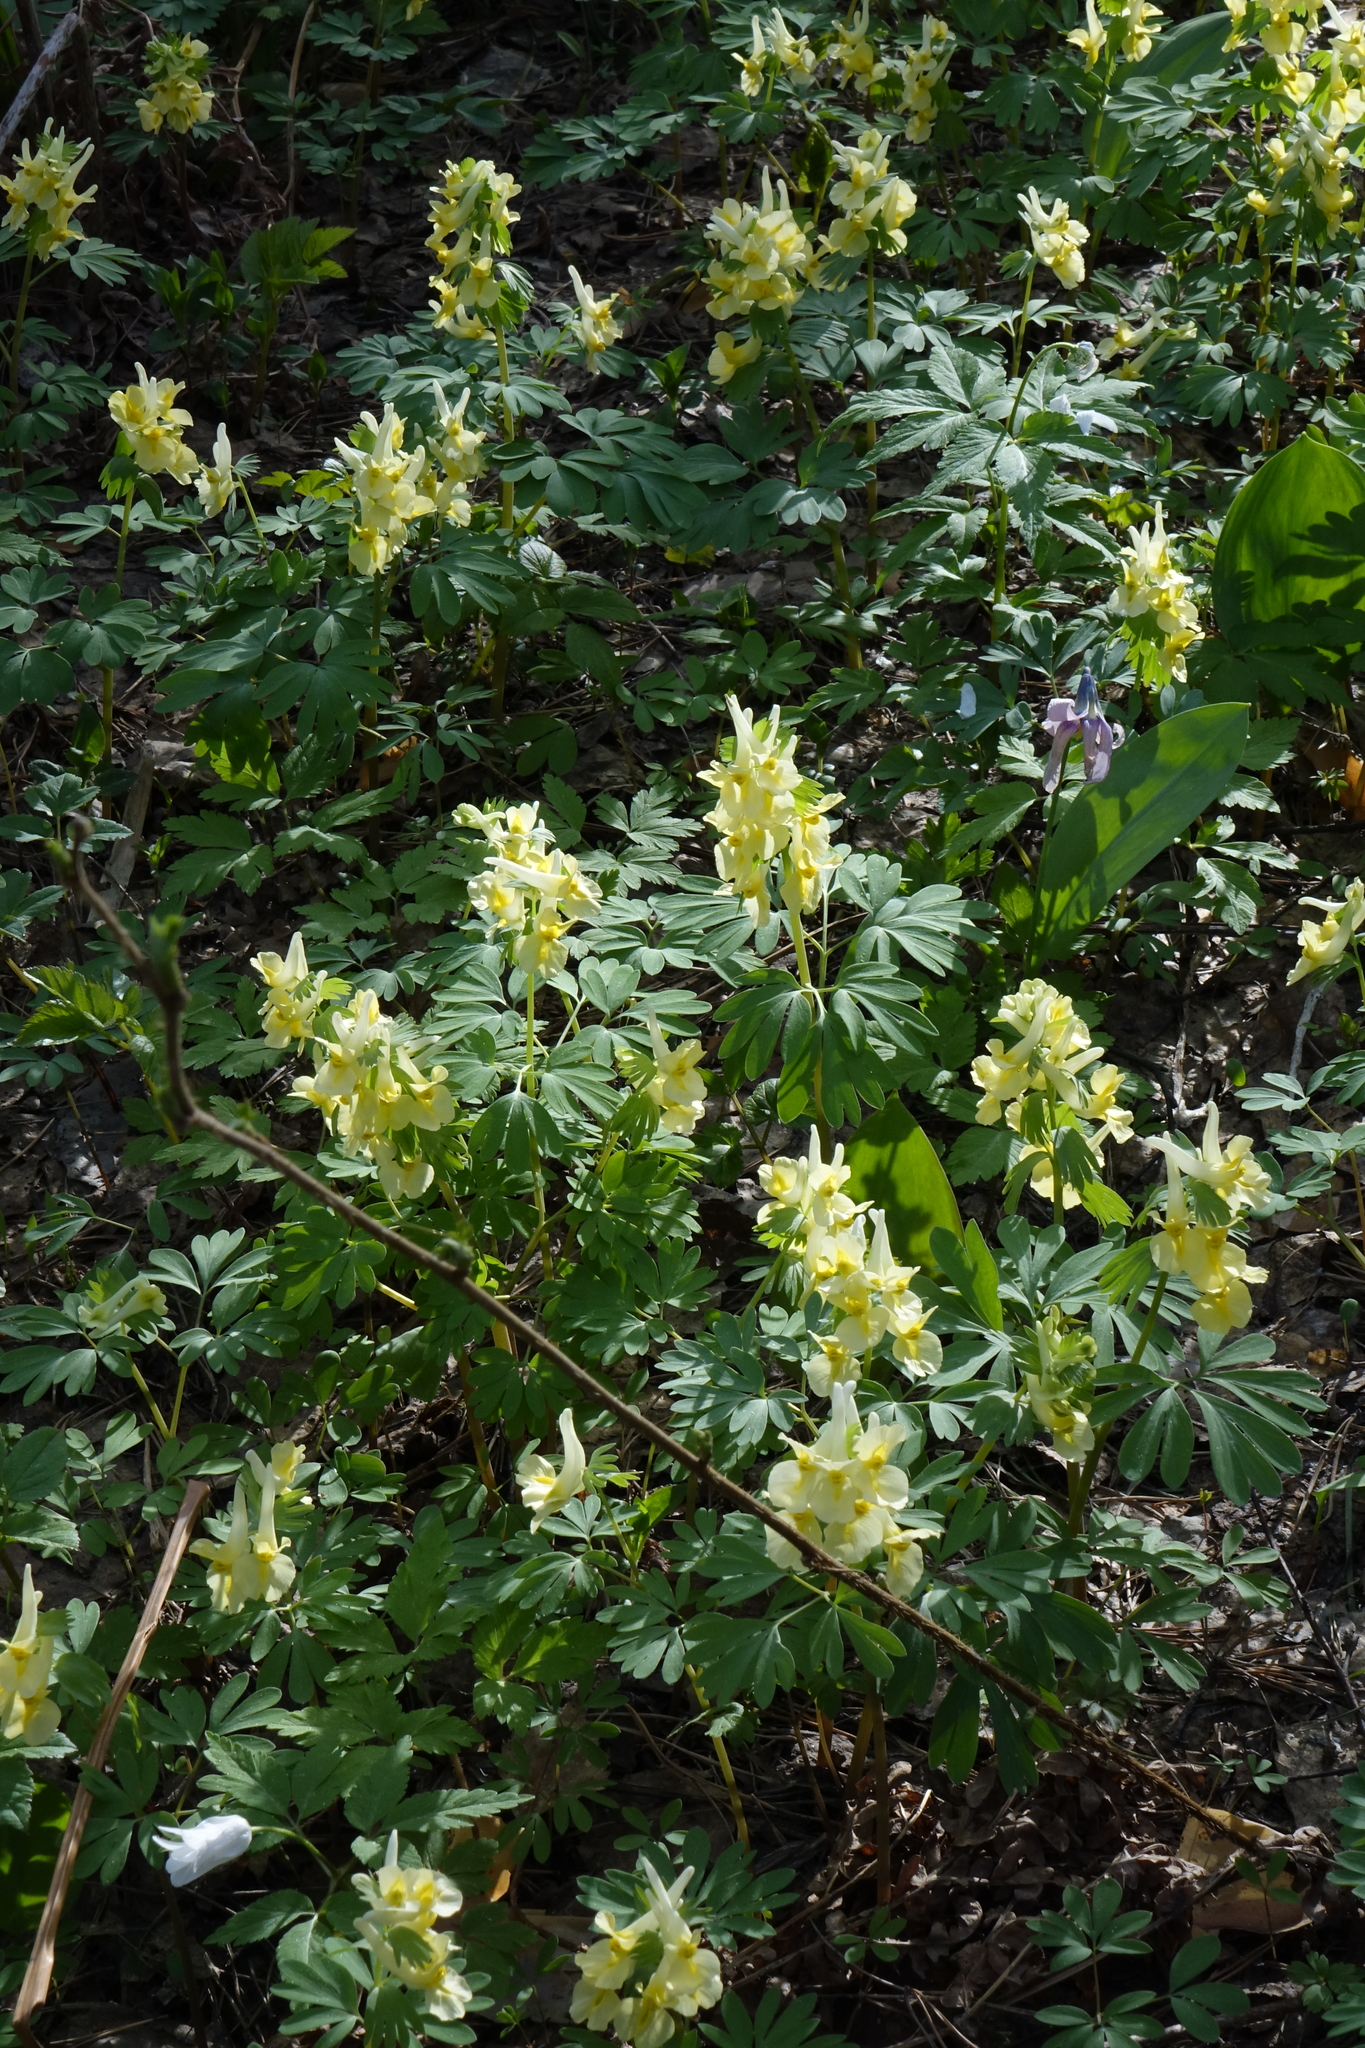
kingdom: Plantae
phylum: Tracheophyta
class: Magnoliopsida
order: Ranunculales
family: Papaveraceae
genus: Corydalis
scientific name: Corydalis bracteata
